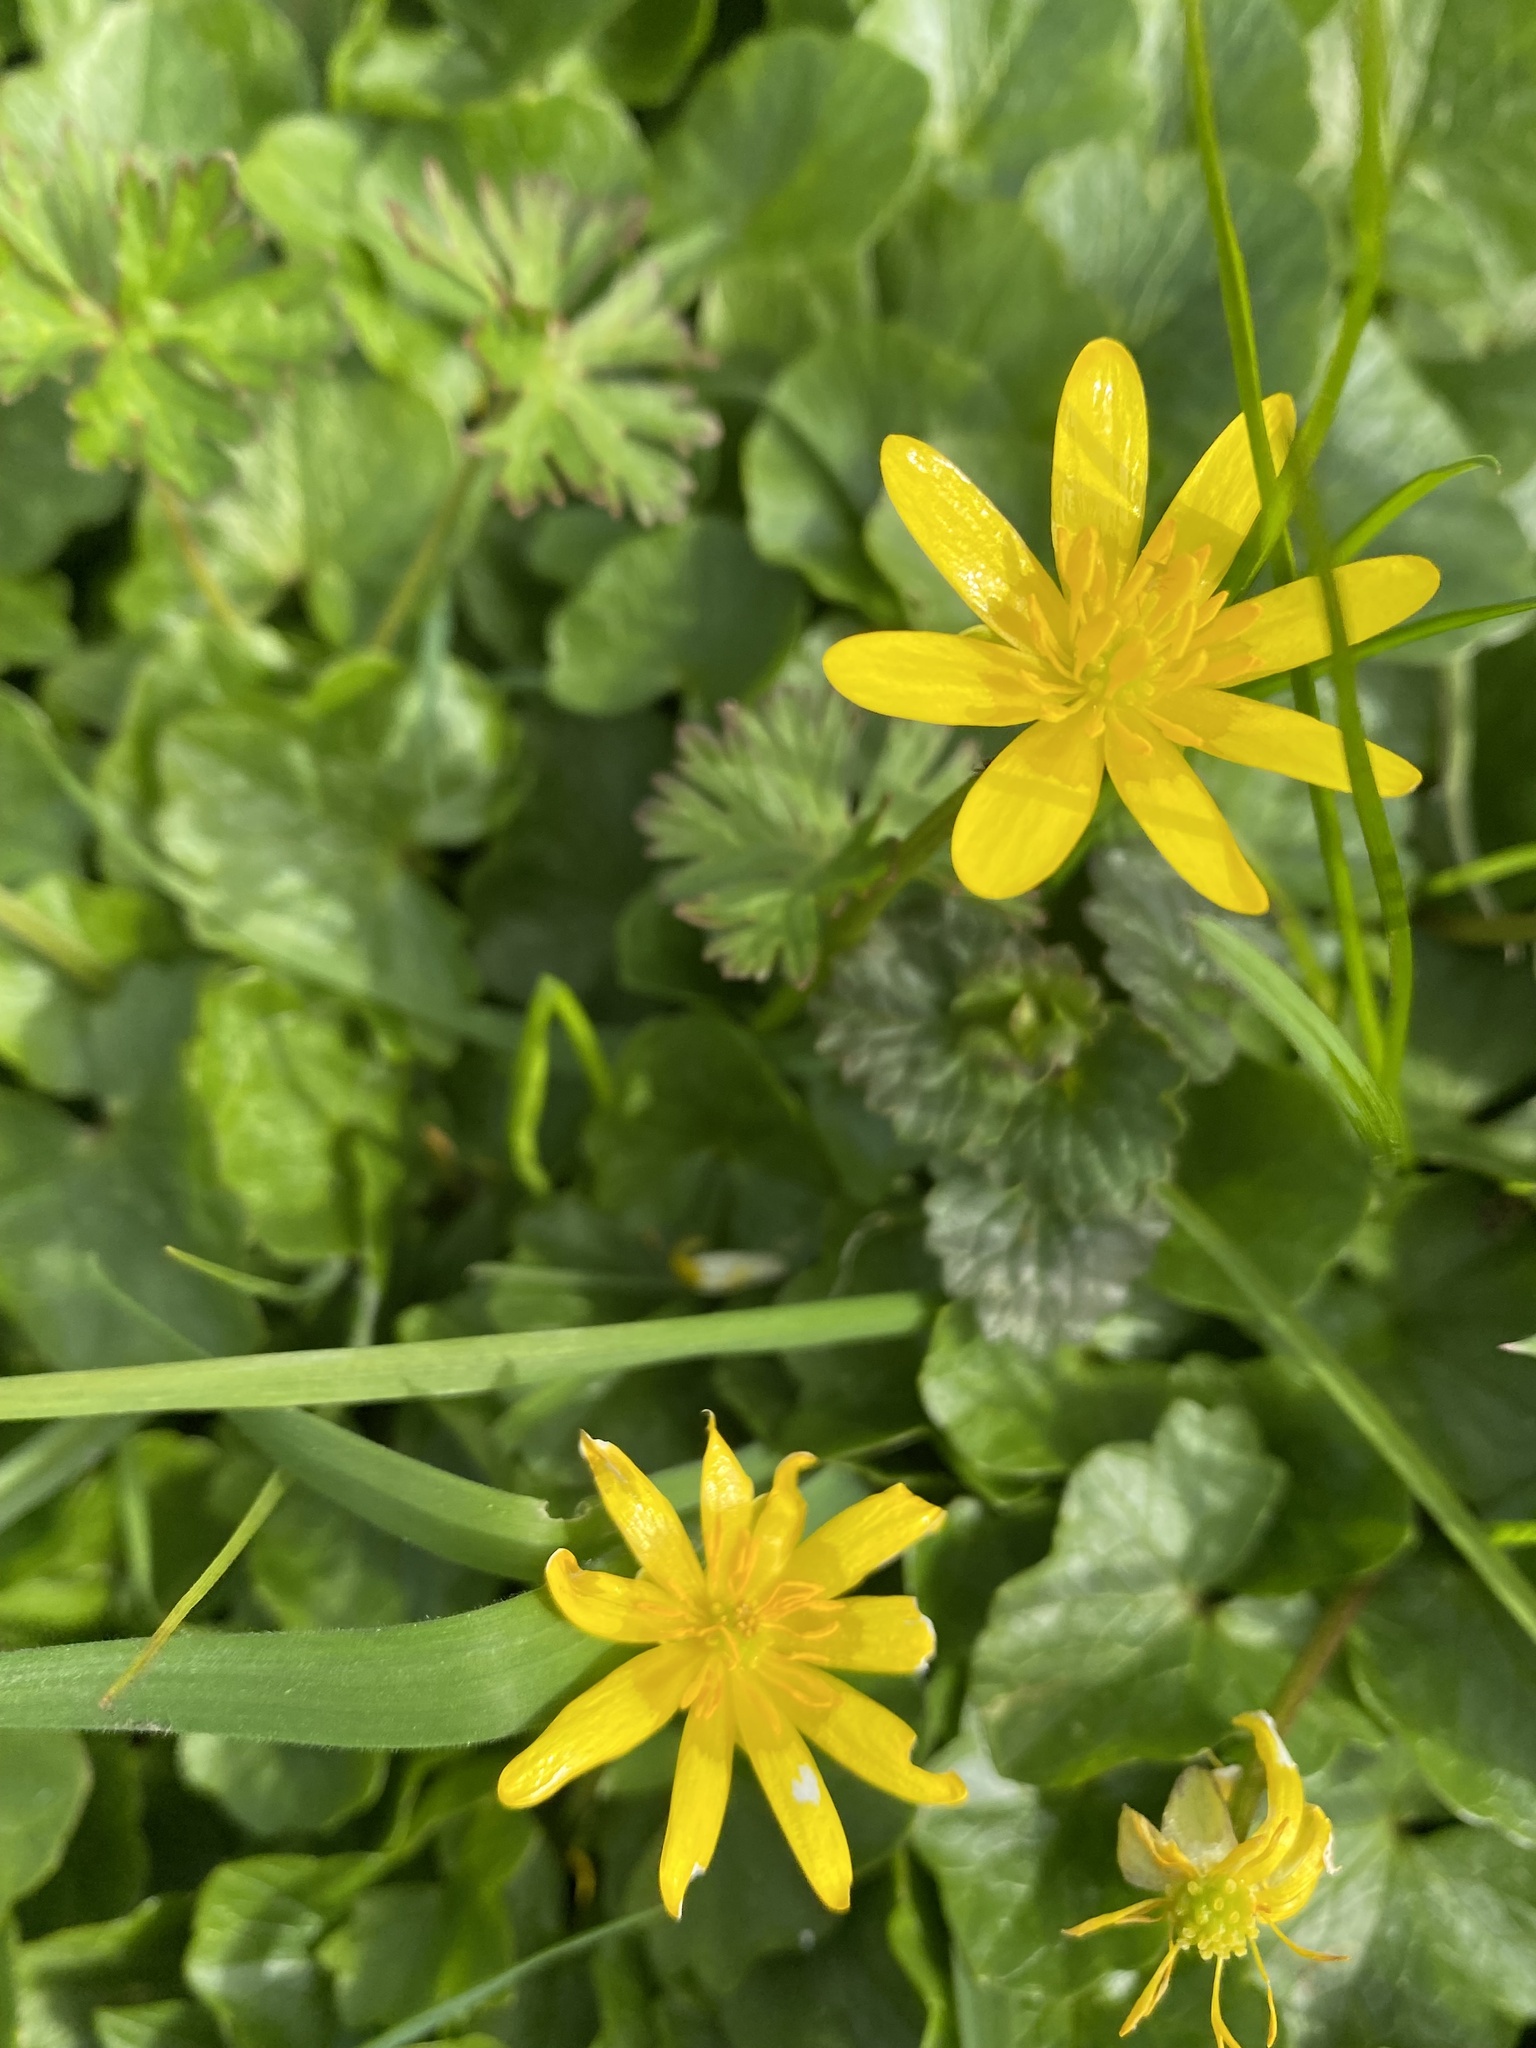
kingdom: Plantae
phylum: Tracheophyta
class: Magnoliopsida
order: Ranunculales
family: Ranunculaceae
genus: Ficaria
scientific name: Ficaria verna
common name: Lesser celandine
